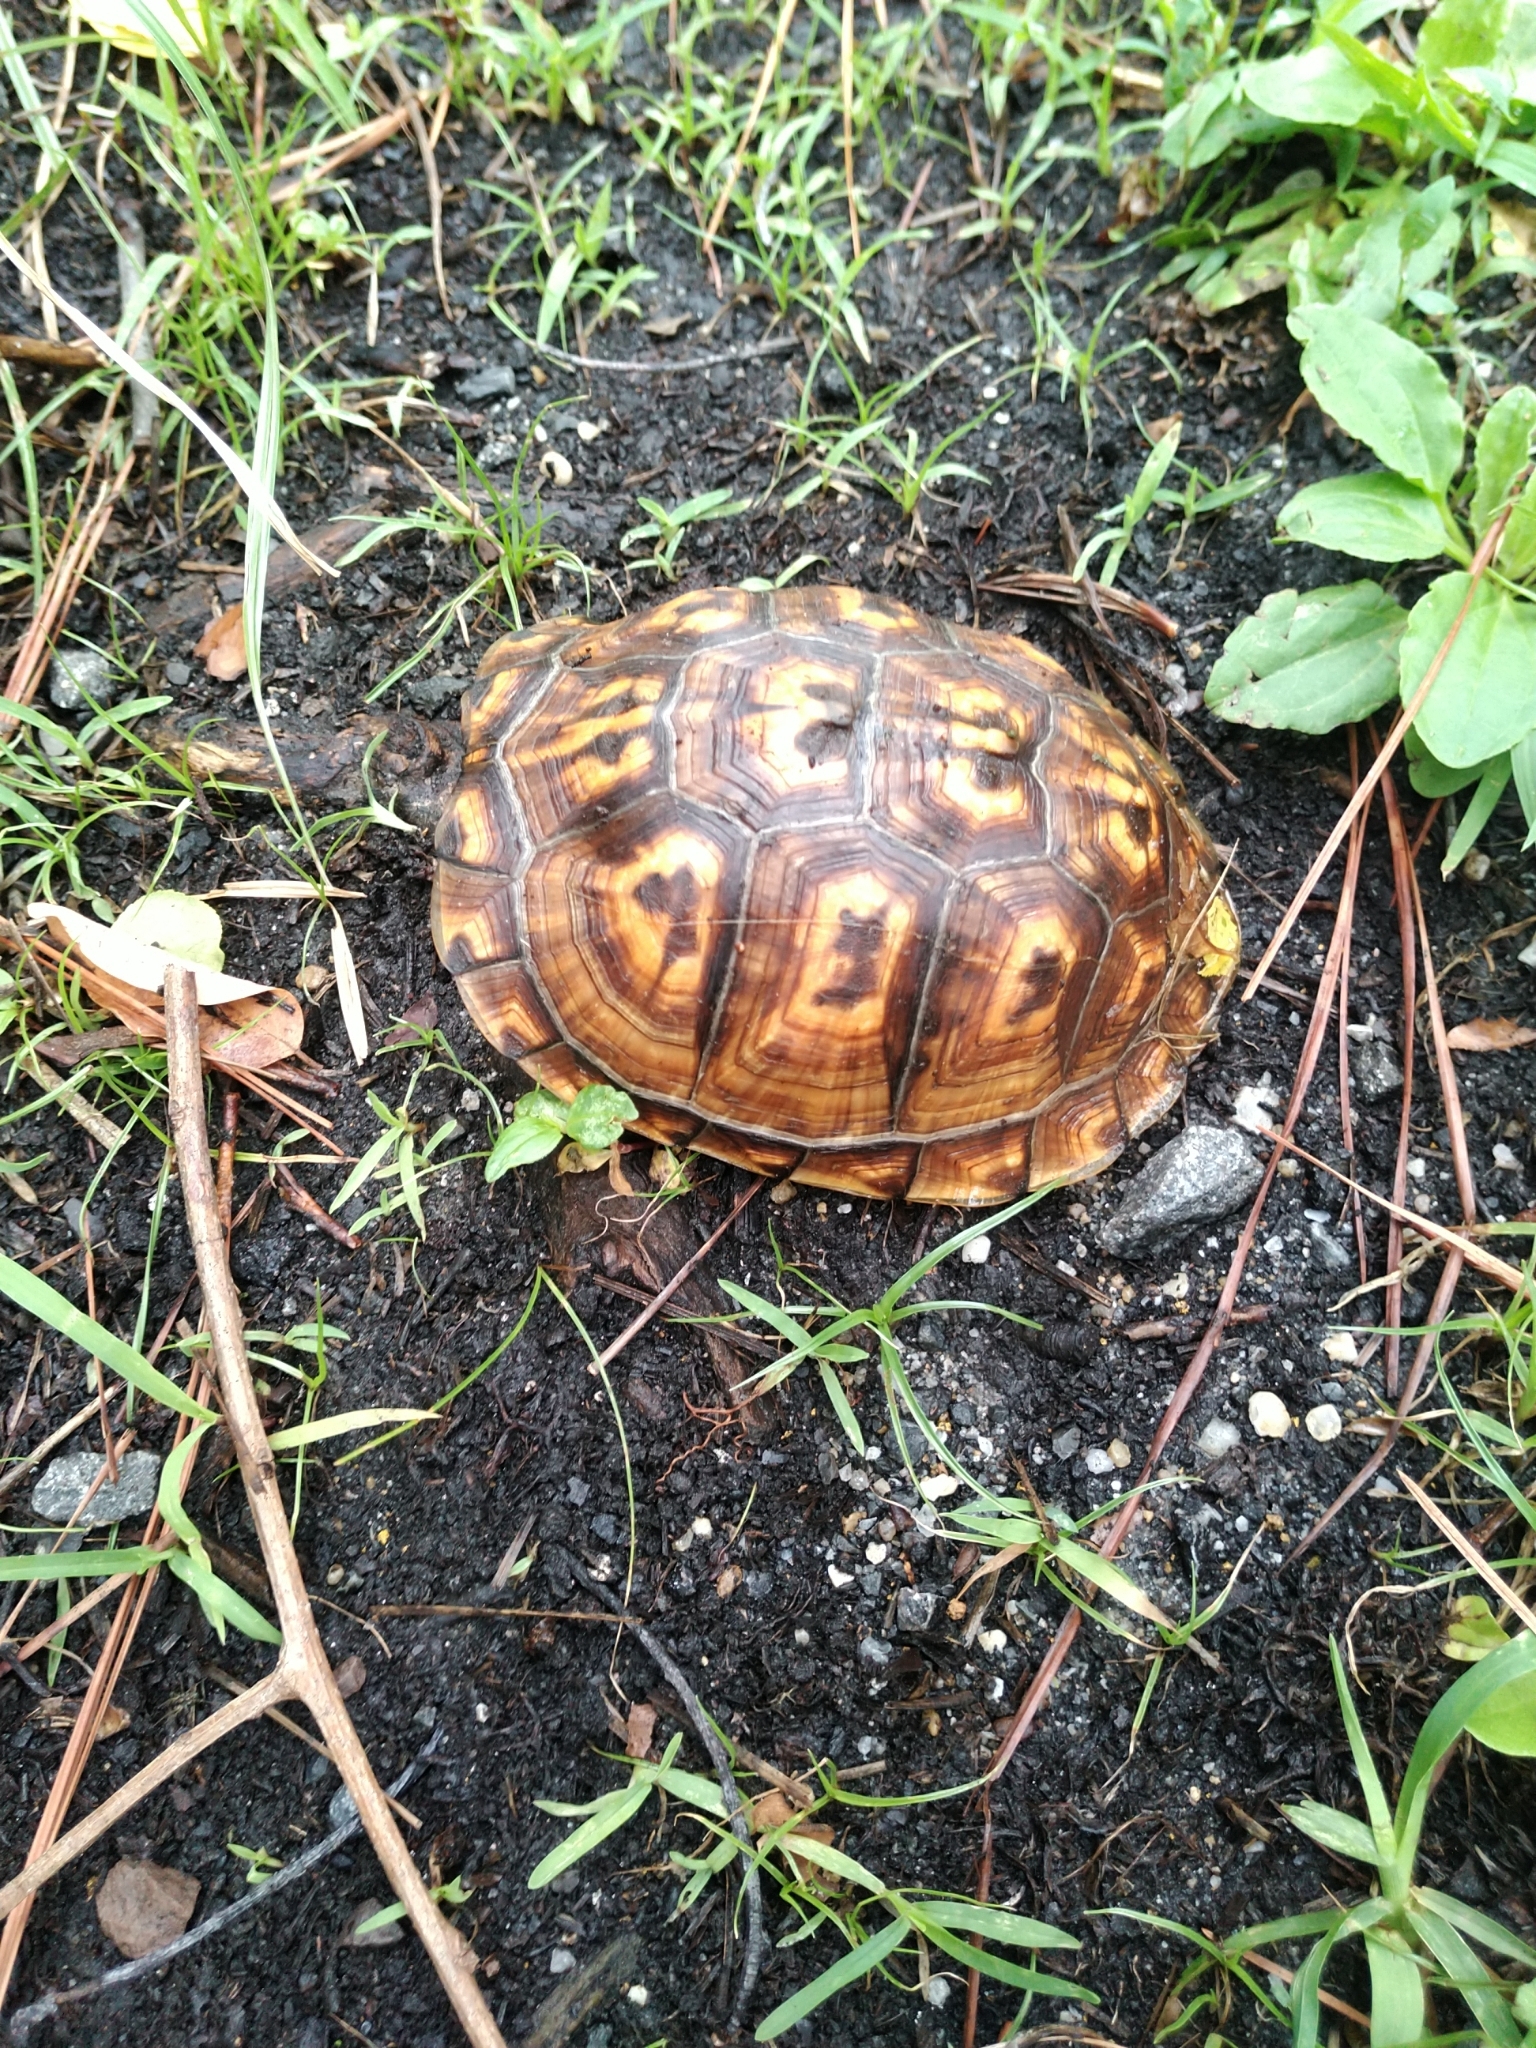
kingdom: Animalia
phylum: Chordata
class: Testudines
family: Emydidae
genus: Terrapene
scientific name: Terrapene carolina
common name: Common box turtle
